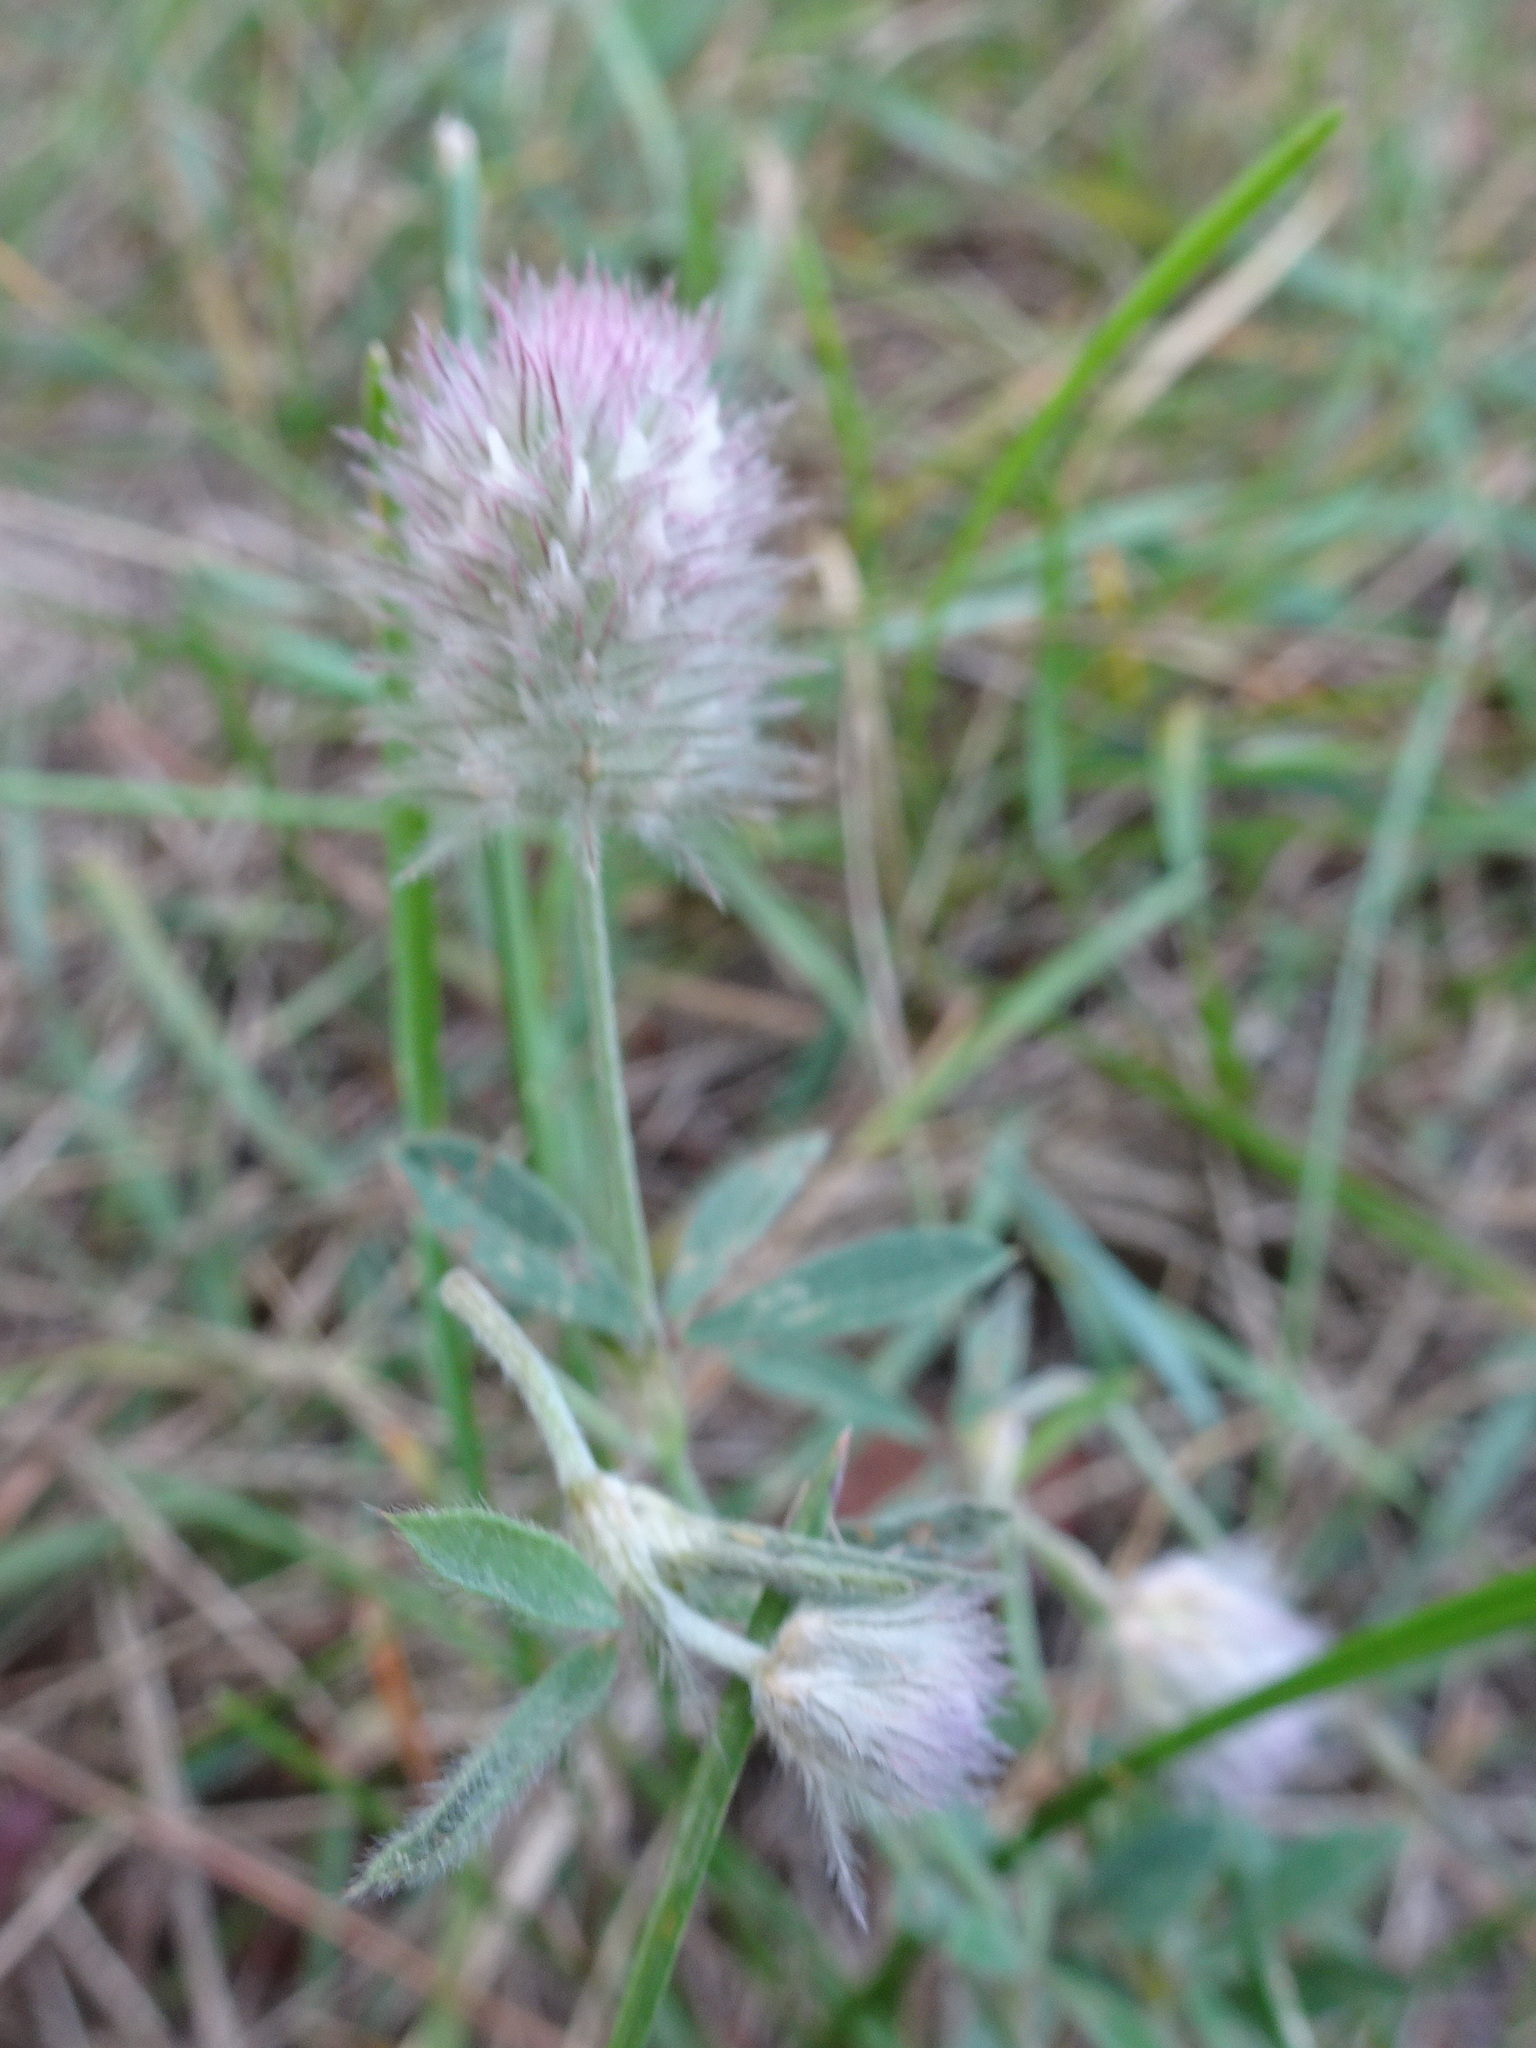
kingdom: Plantae
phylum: Tracheophyta
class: Magnoliopsida
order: Fabales
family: Fabaceae
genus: Trifolium
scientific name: Trifolium arvense
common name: Hare's-foot clover
